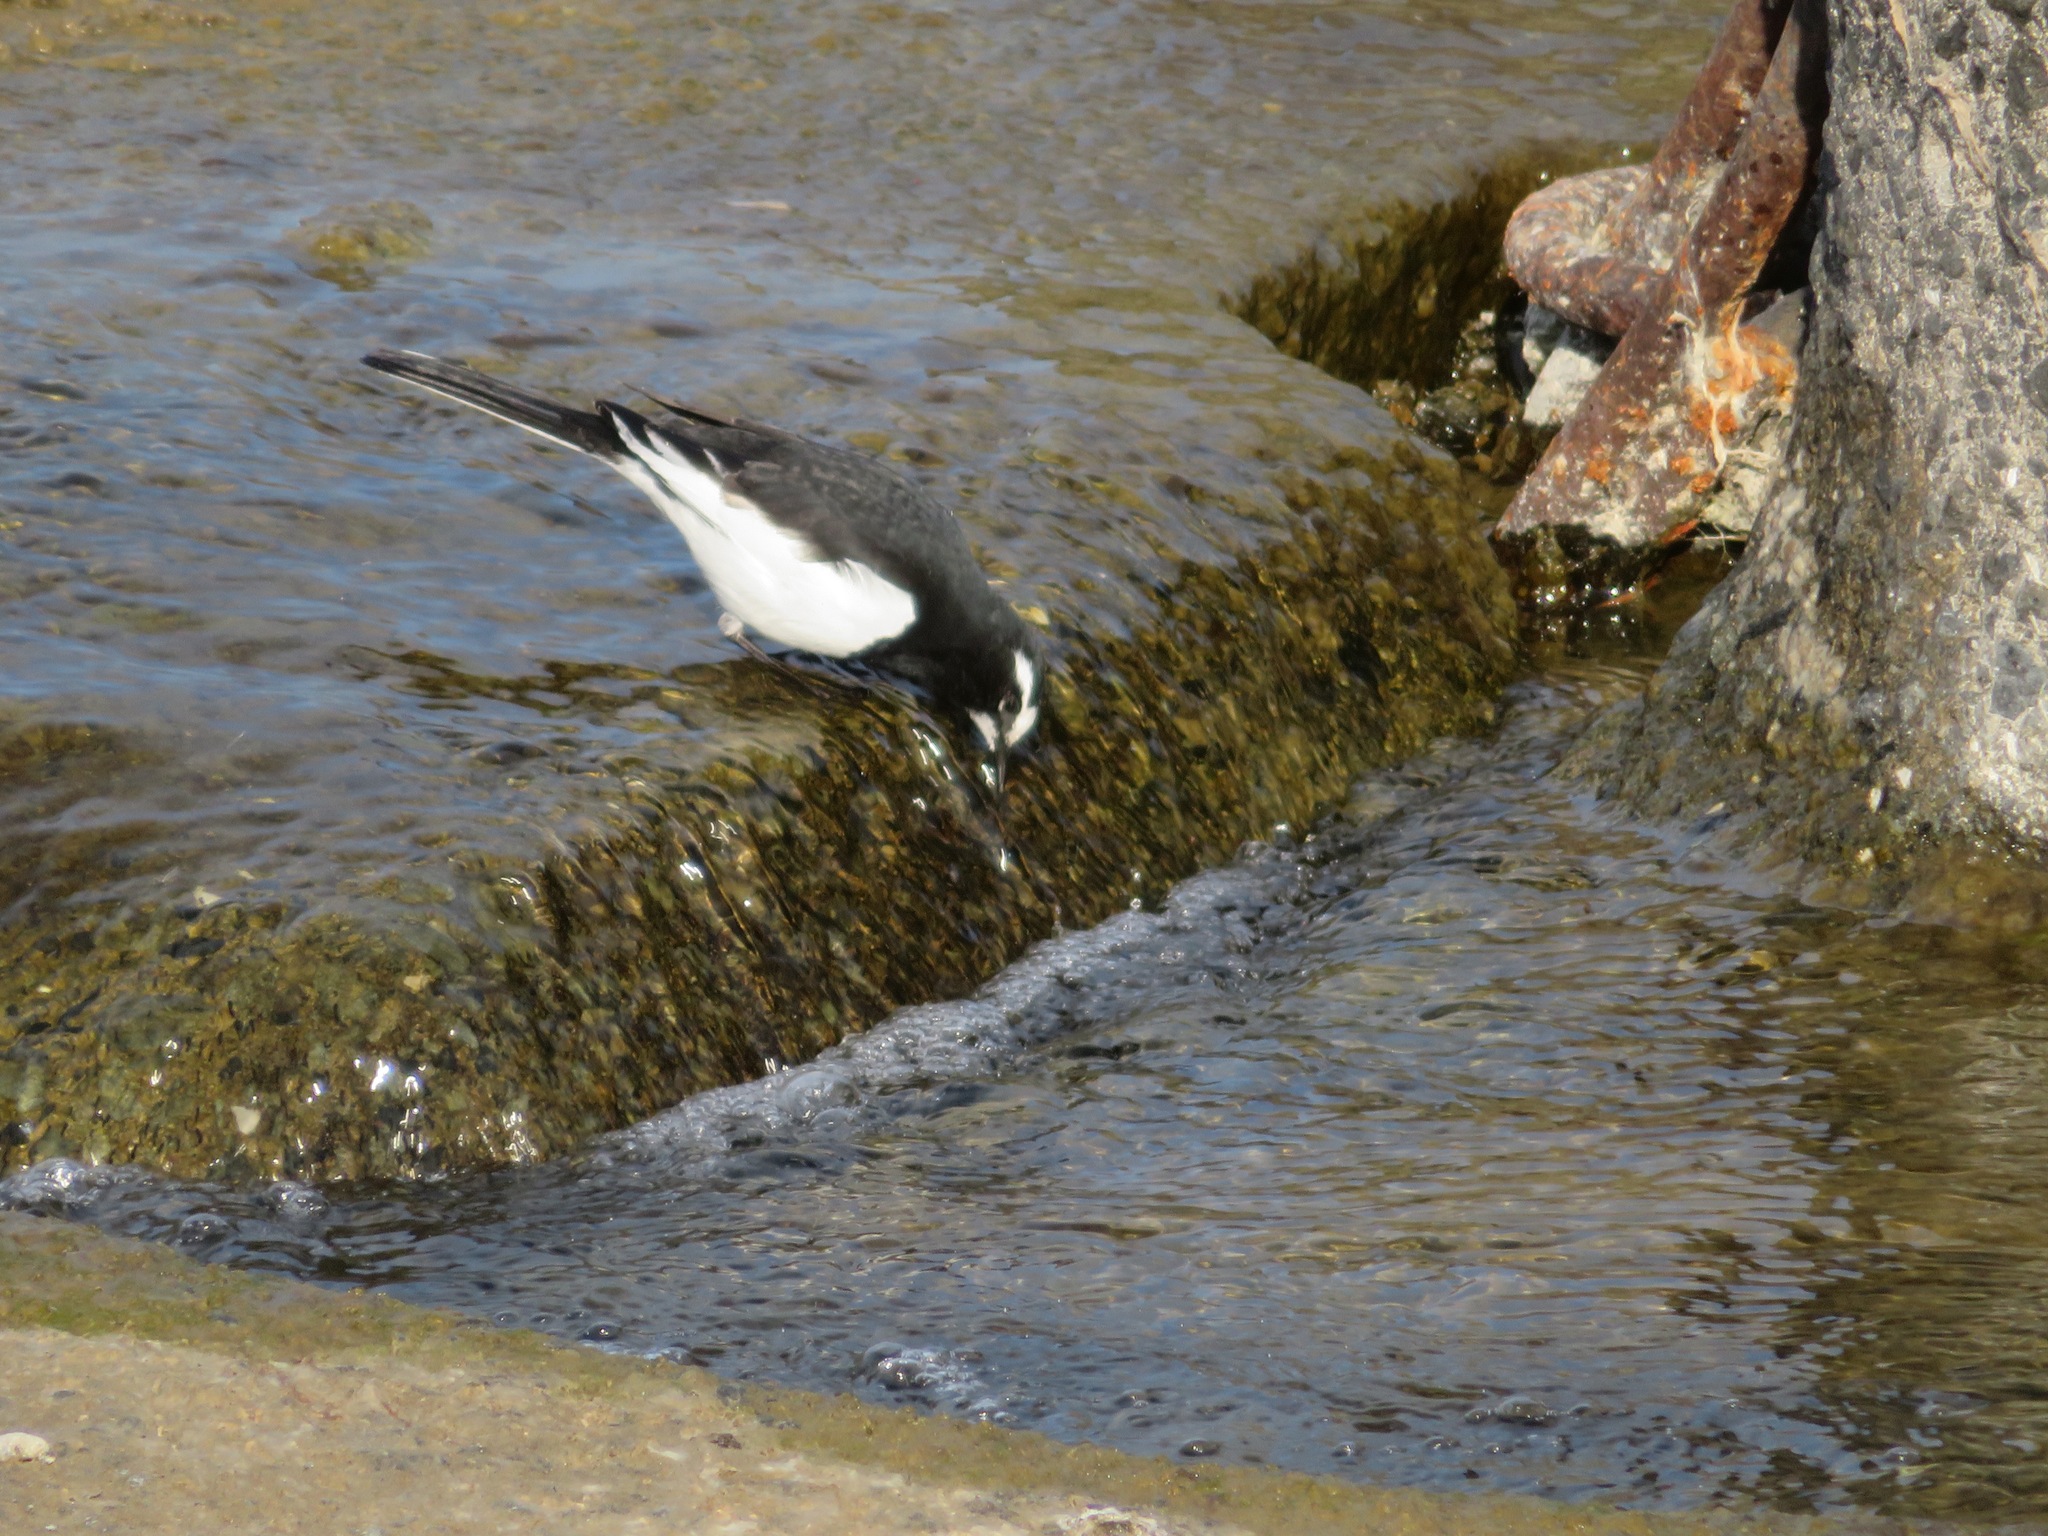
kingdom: Animalia
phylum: Chordata
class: Aves
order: Passeriformes
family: Motacillidae
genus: Motacilla
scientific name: Motacilla grandis
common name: Japanese wagtail
